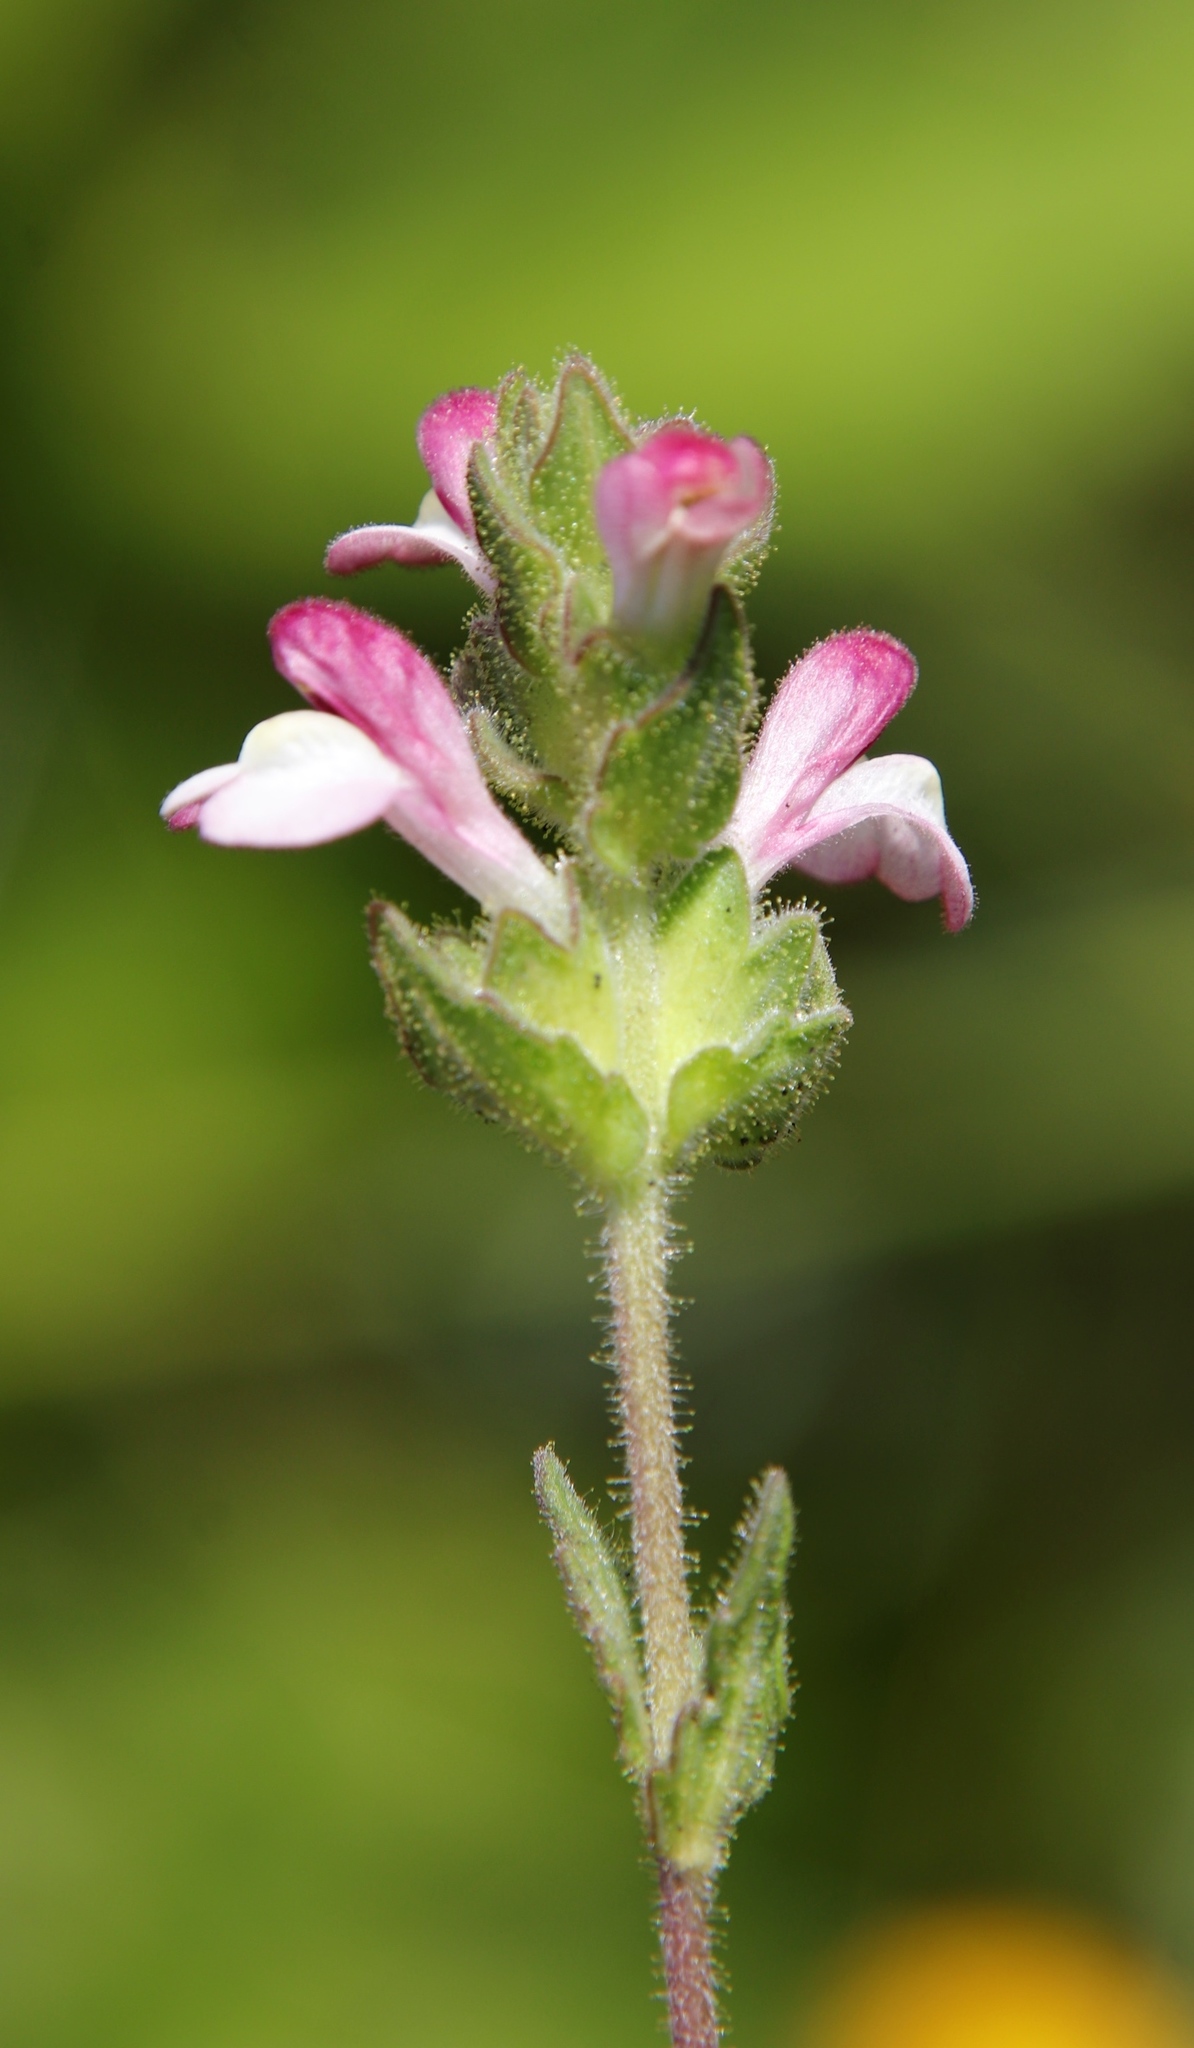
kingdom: Plantae
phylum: Tracheophyta
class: Magnoliopsida
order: Lamiales
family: Orobanchaceae
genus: Bellardia
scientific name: Bellardia trixago
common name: Mediterranean lineseed
